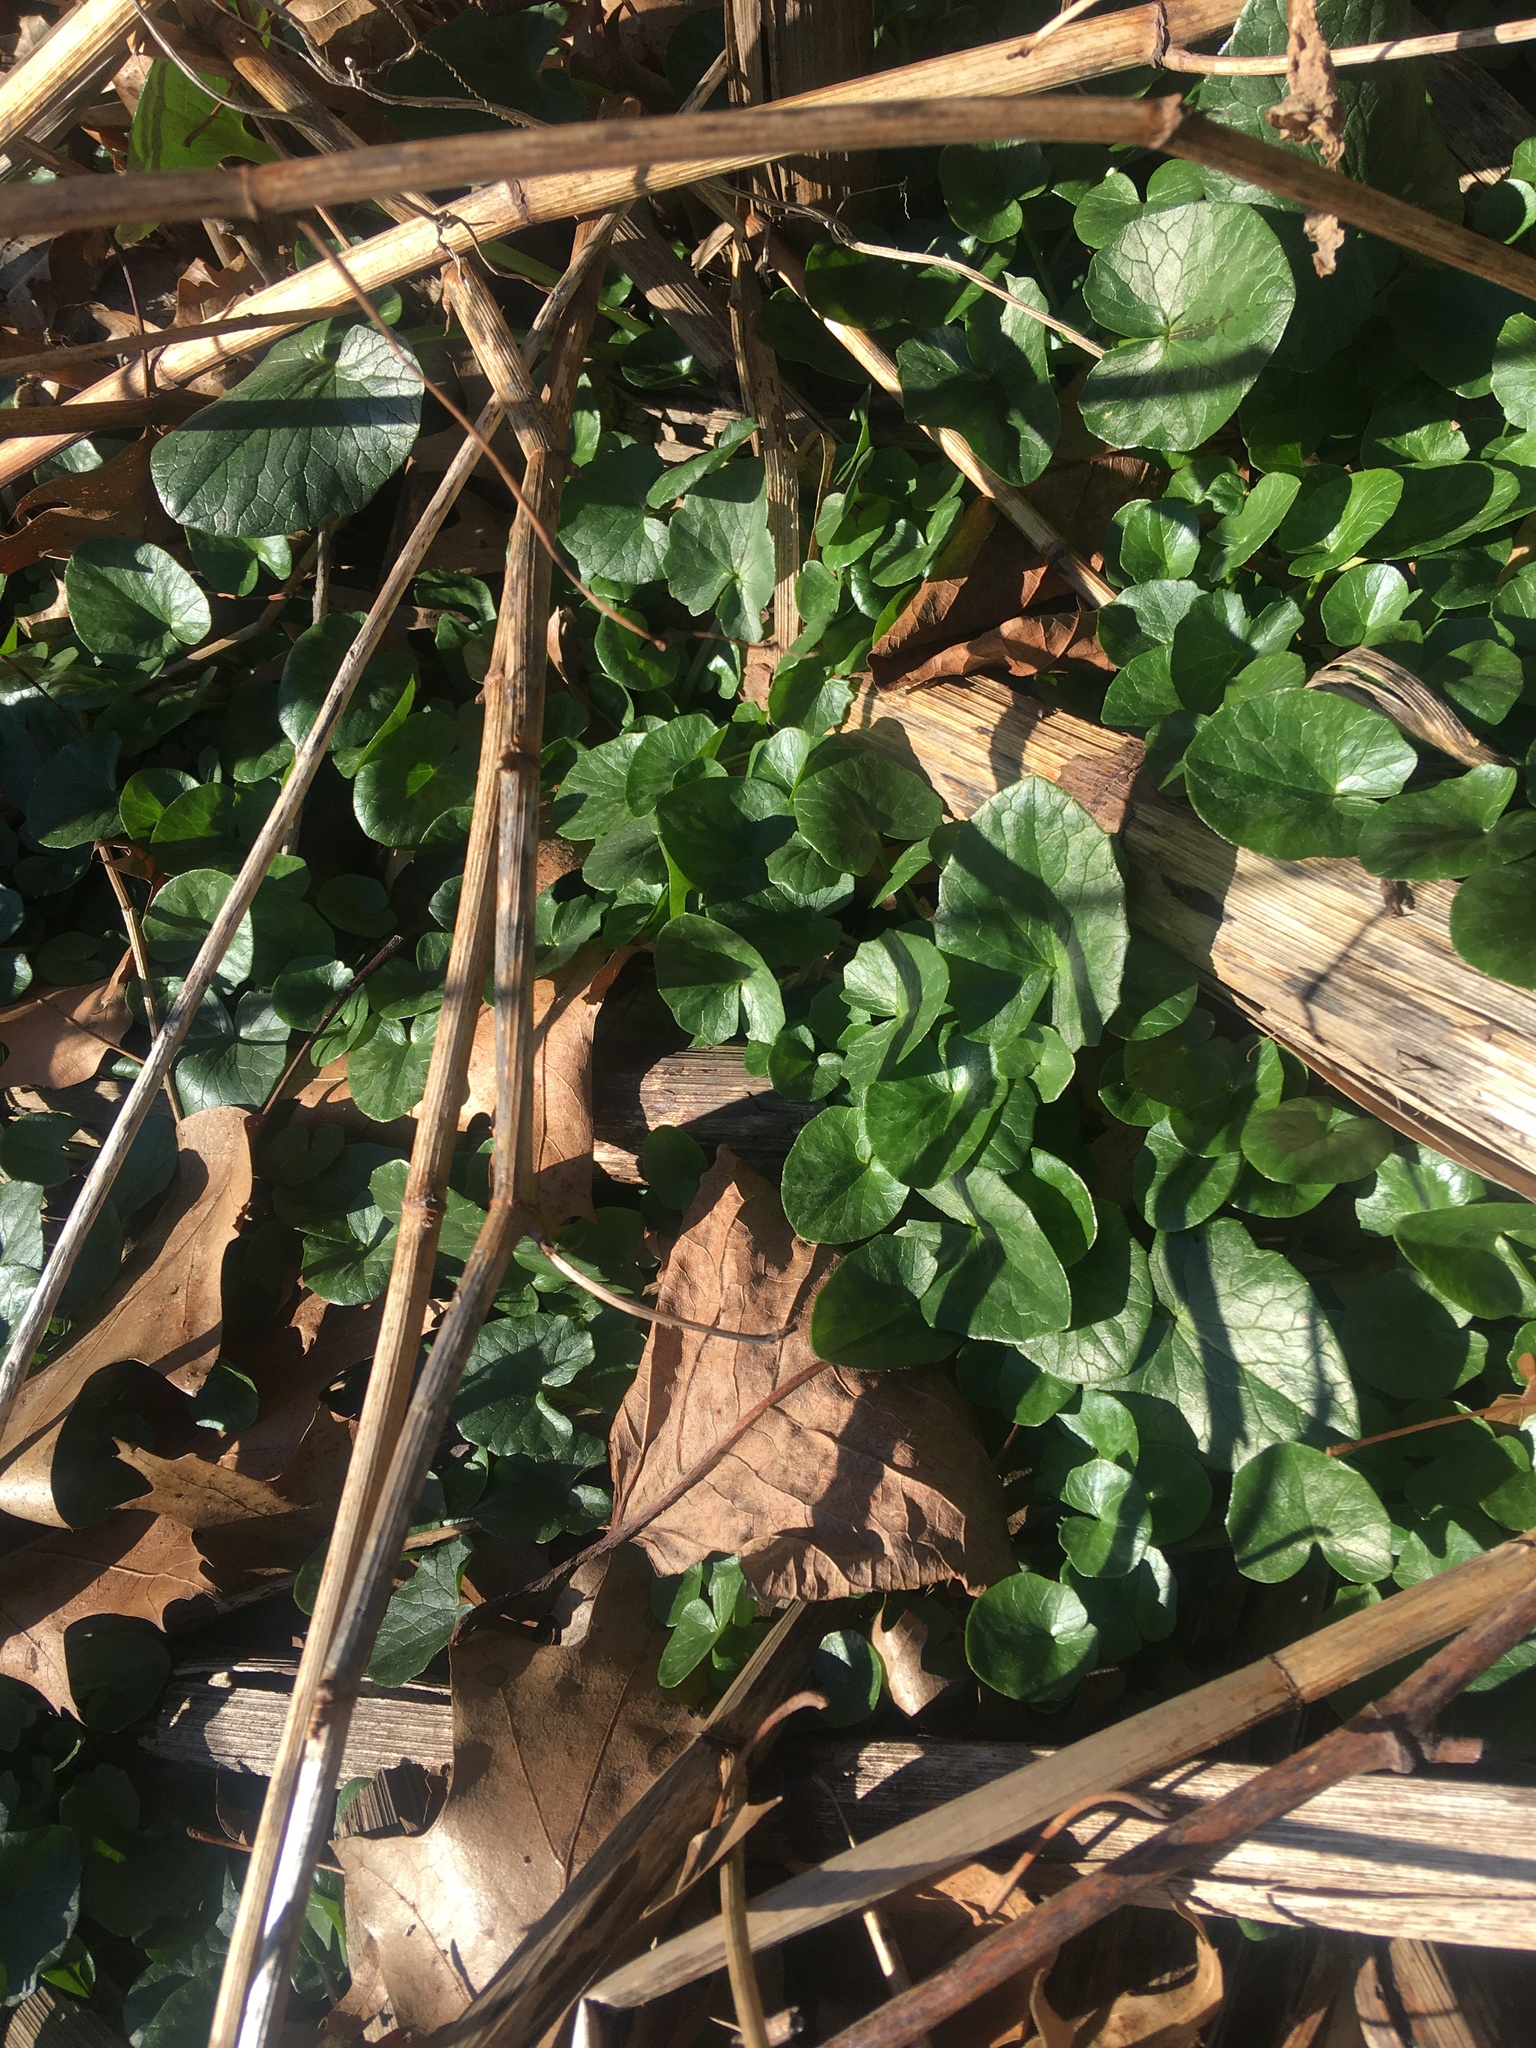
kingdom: Plantae
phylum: Tracheophyta
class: Magnoliopsida
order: Ranunculales
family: Ranunculaceae
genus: Ficaria
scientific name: Ficaria verna
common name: Lesser celandine
